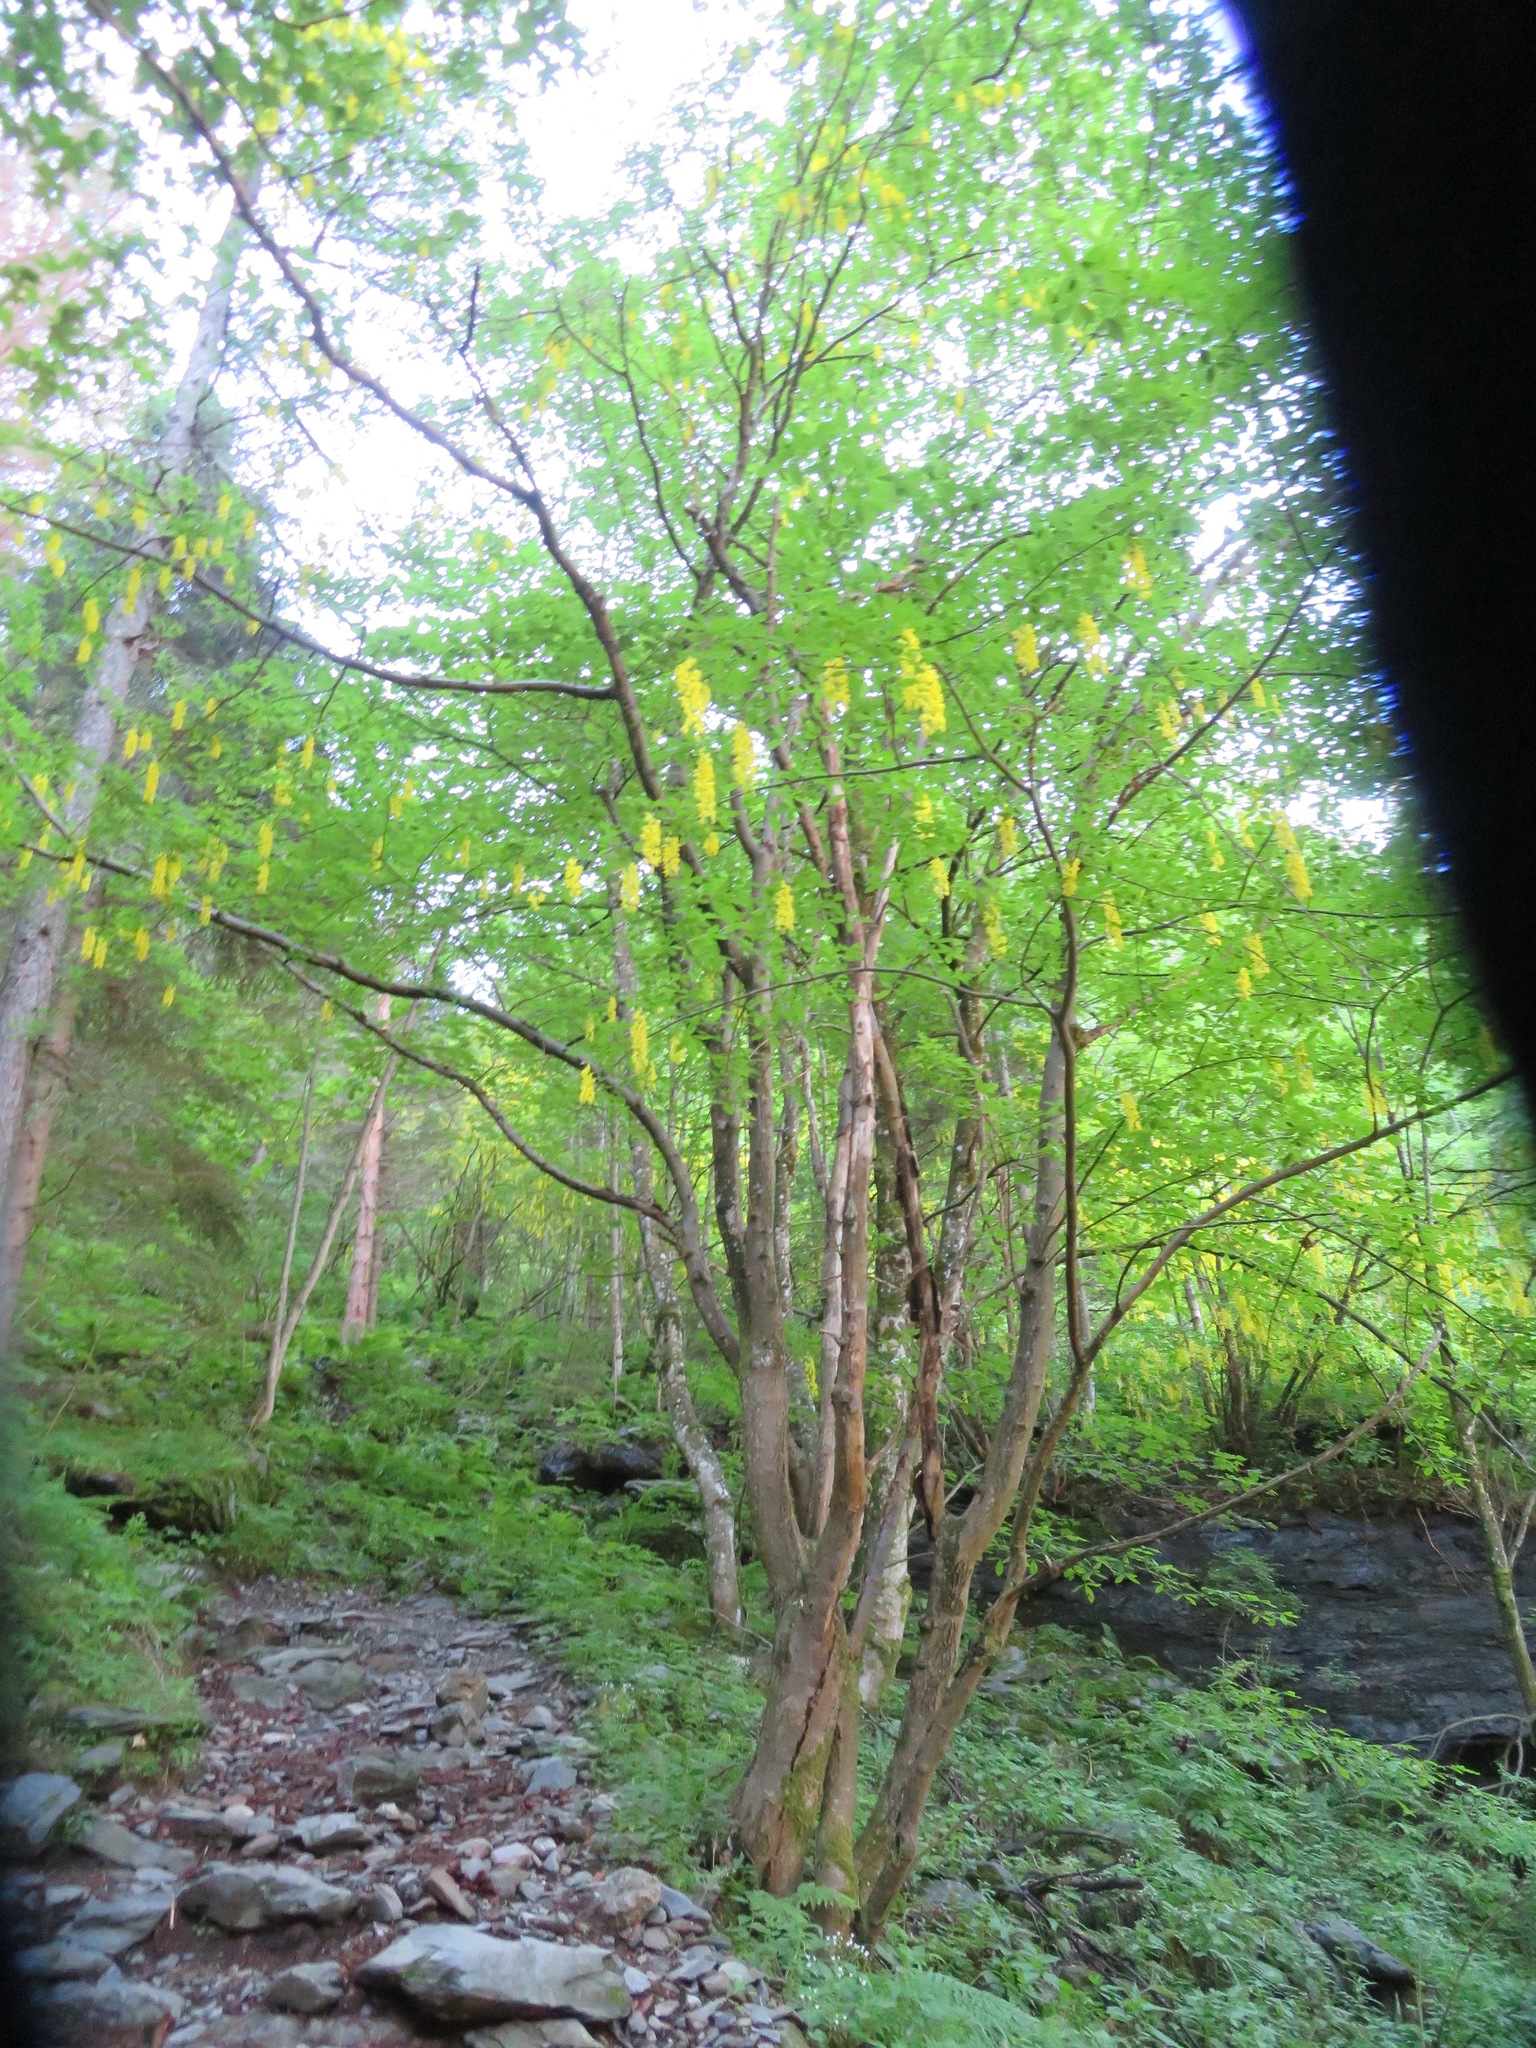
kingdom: Plantae
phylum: Tracheophyta
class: Magnoliopsida
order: Fabales
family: Fabaceae
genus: Laburnum
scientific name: Laburnum alpinum
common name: Scottish laburnum
